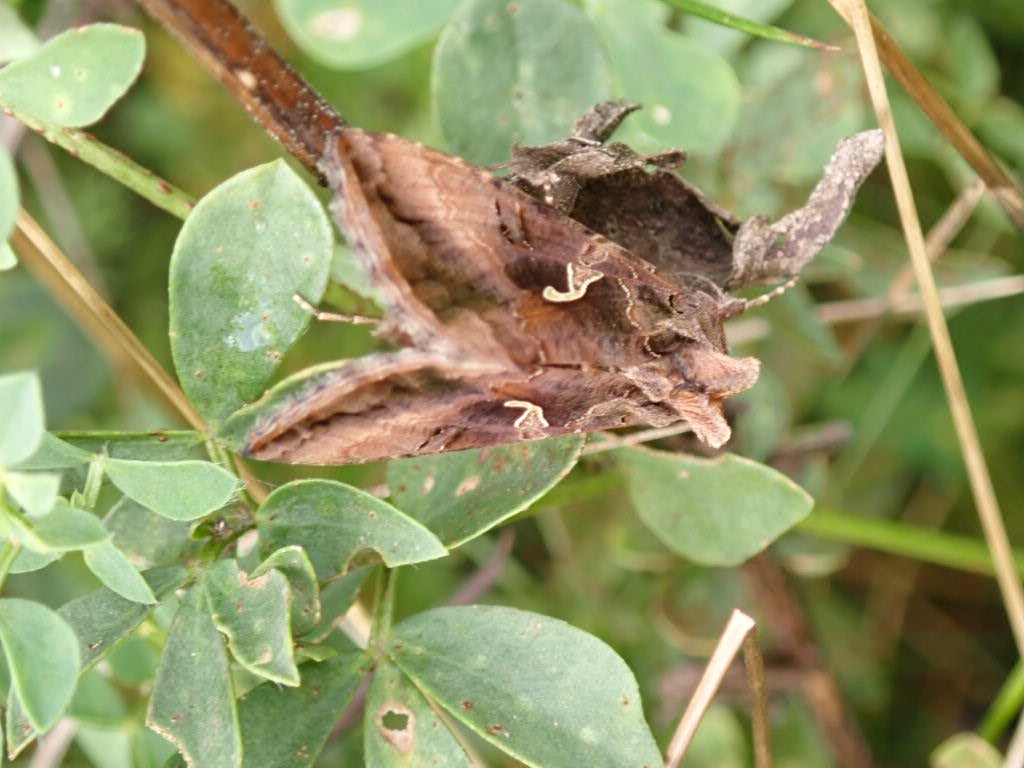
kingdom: Animalia
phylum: Arthropoda
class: Insecta
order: Lepidoptera
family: Noctuidae
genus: Autographa
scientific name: Autographa gamma
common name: Silver y
